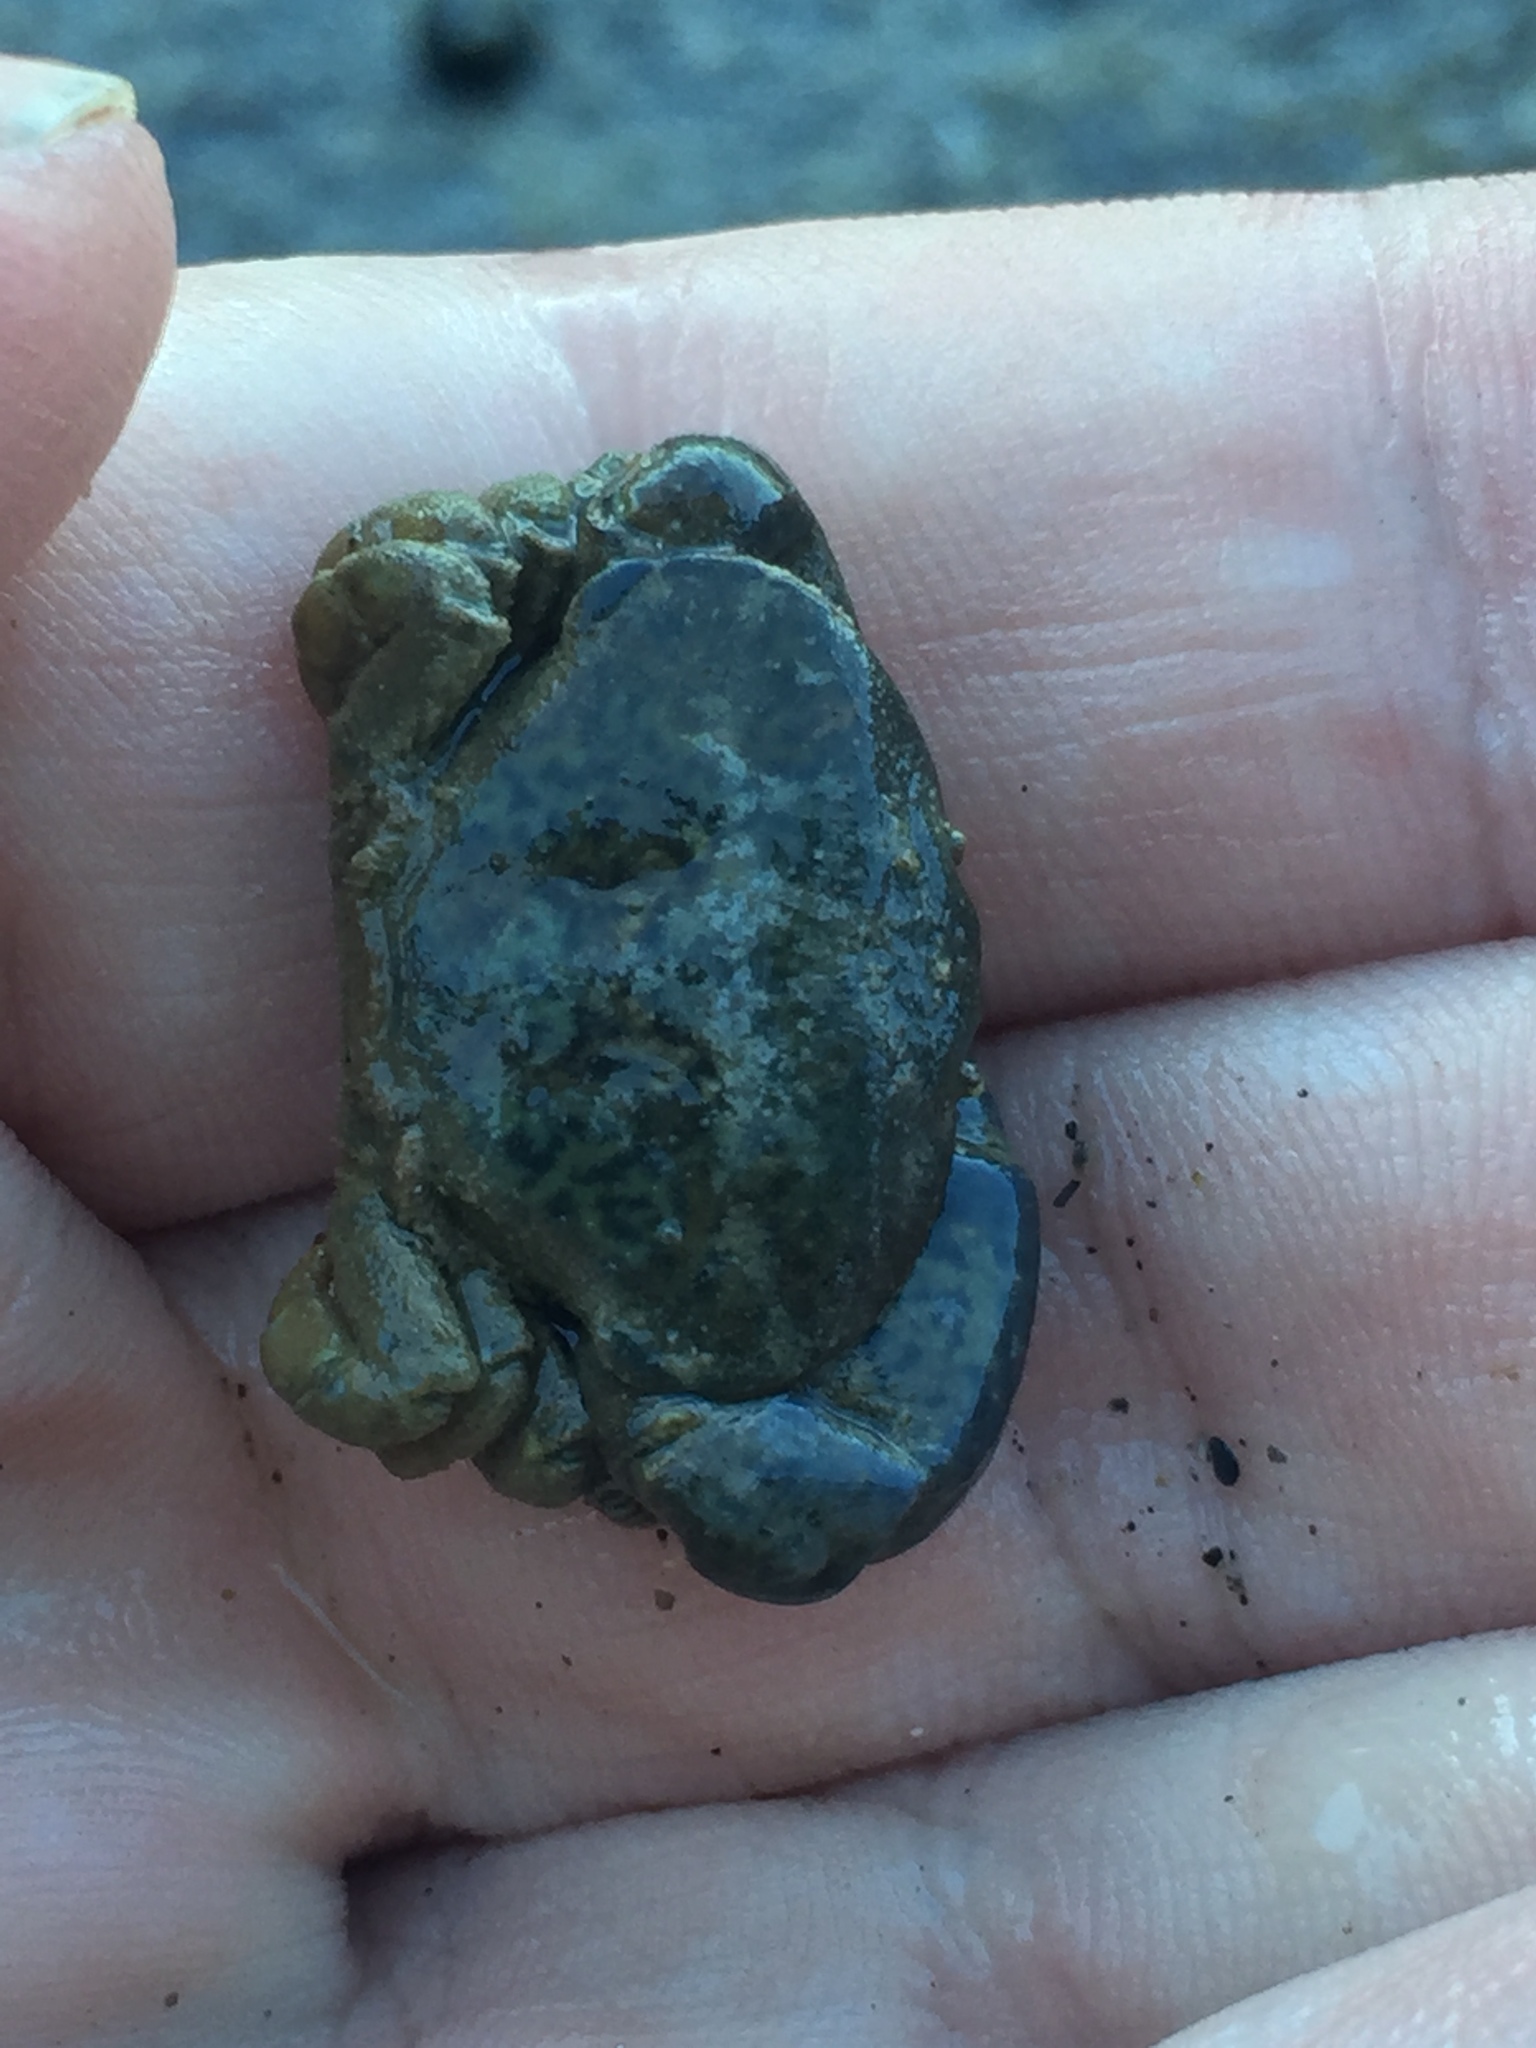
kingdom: Animalia
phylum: Arthropoda
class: Malacostraca
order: Decapoda
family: Heteroziidae
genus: Heterozius
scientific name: Heterozius rotundifrons
